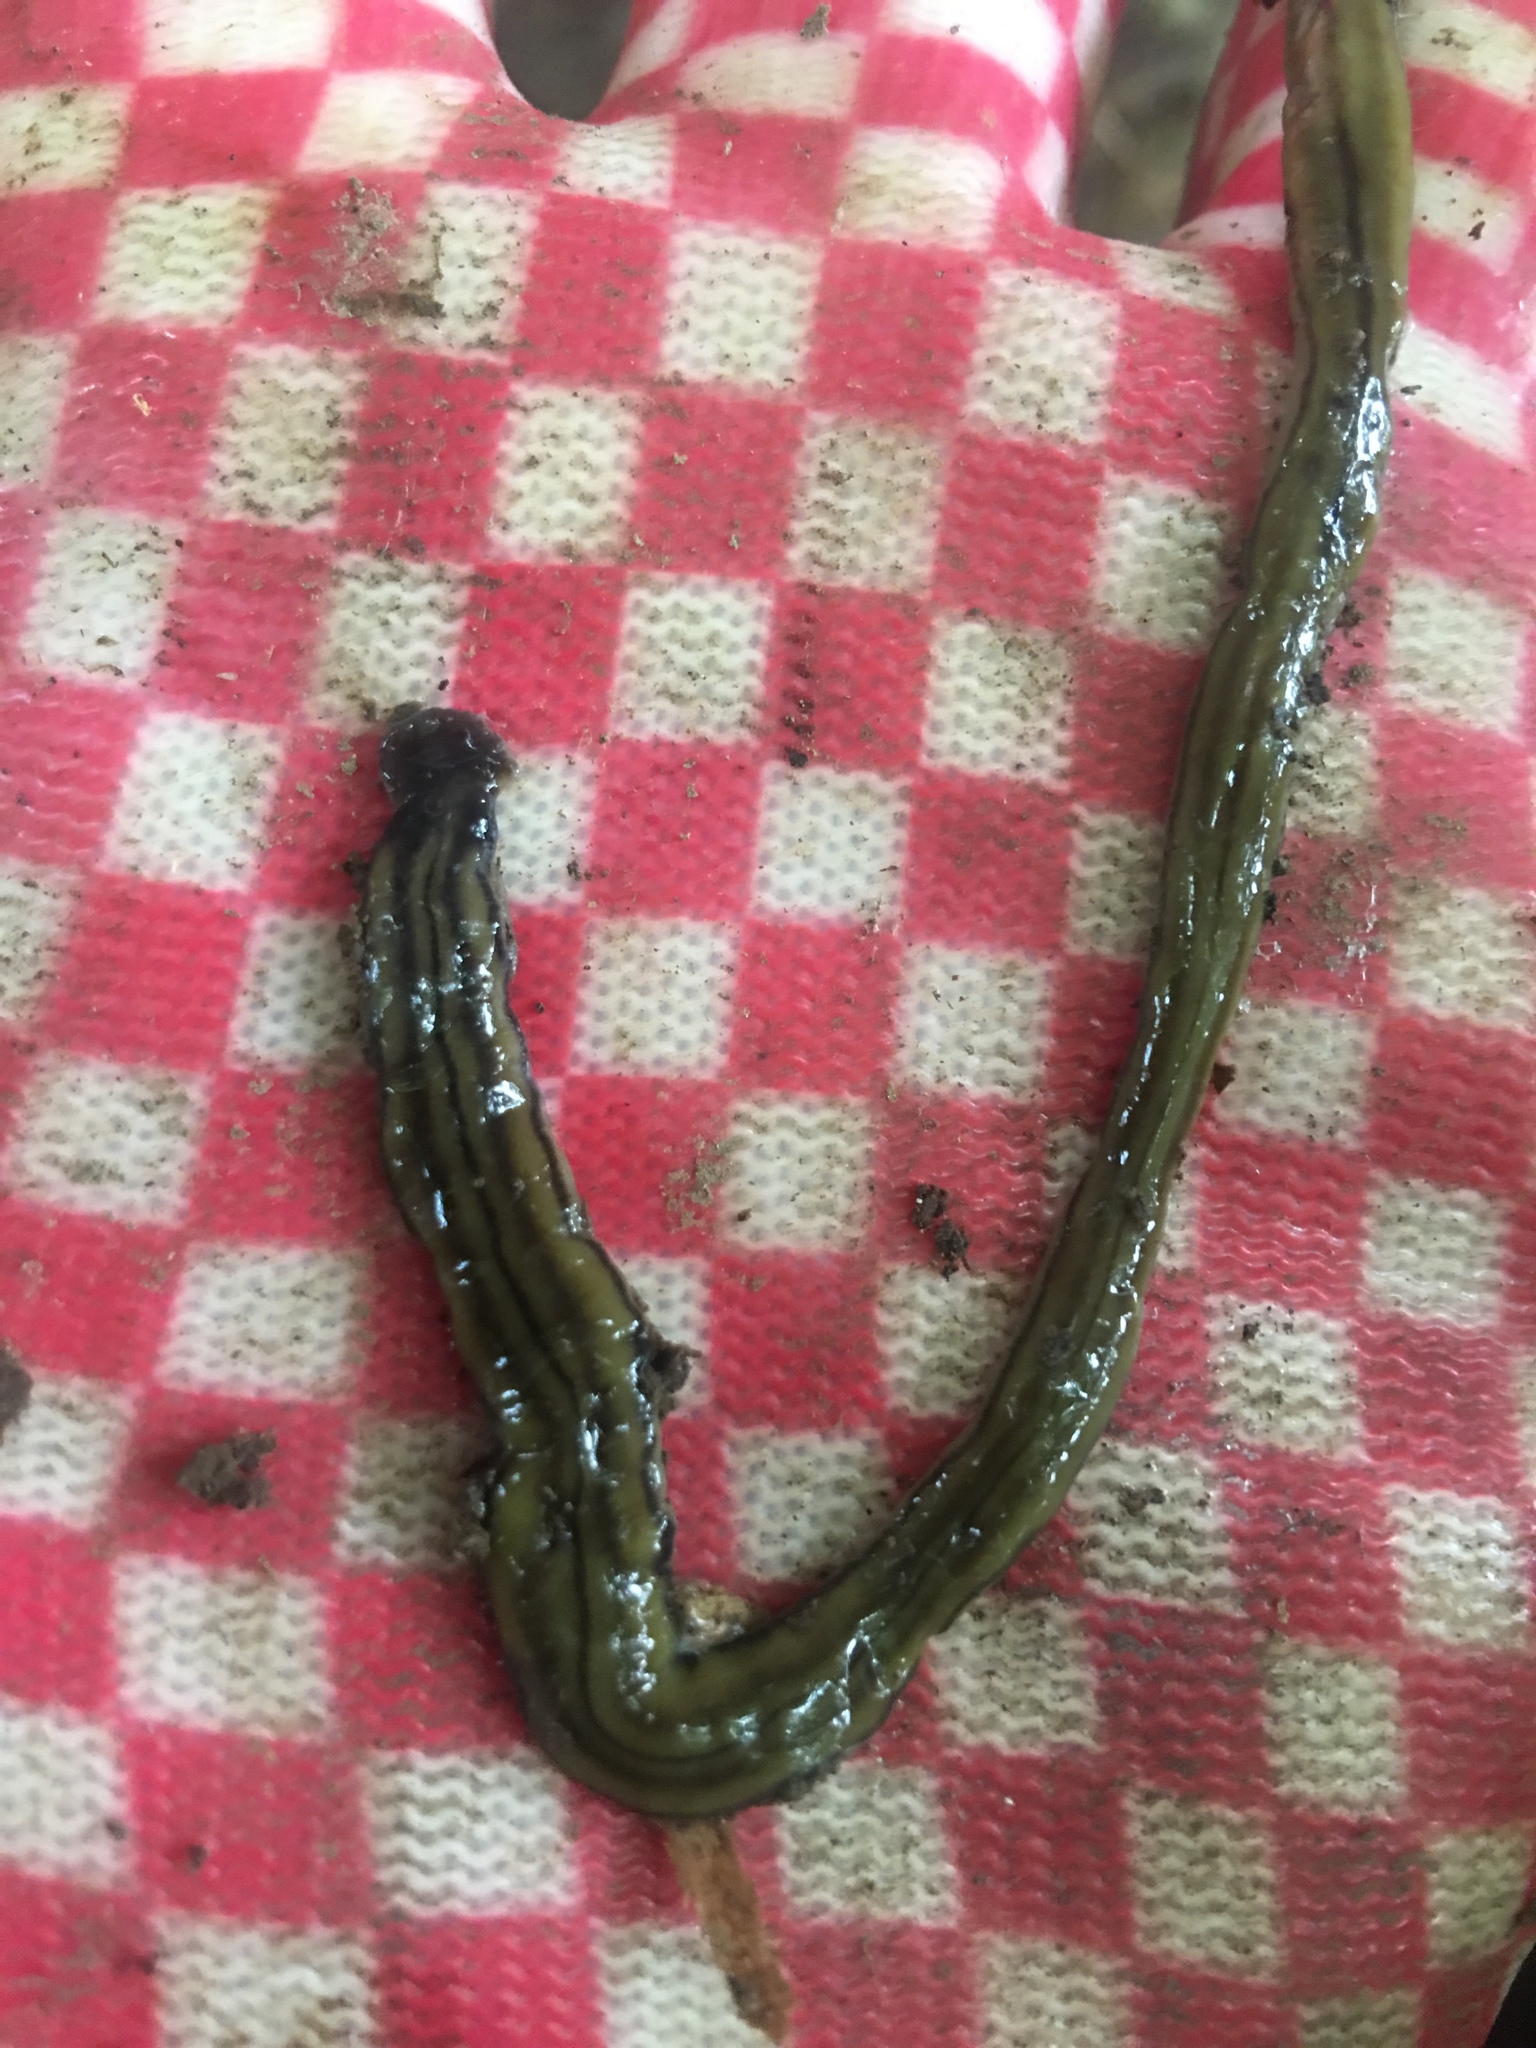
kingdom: Animalia
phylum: Platyhelminthes
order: Tricladida
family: Geoplanidae
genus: Bipalium
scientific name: Bipalium kewense
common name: Hammerhead flatworm
